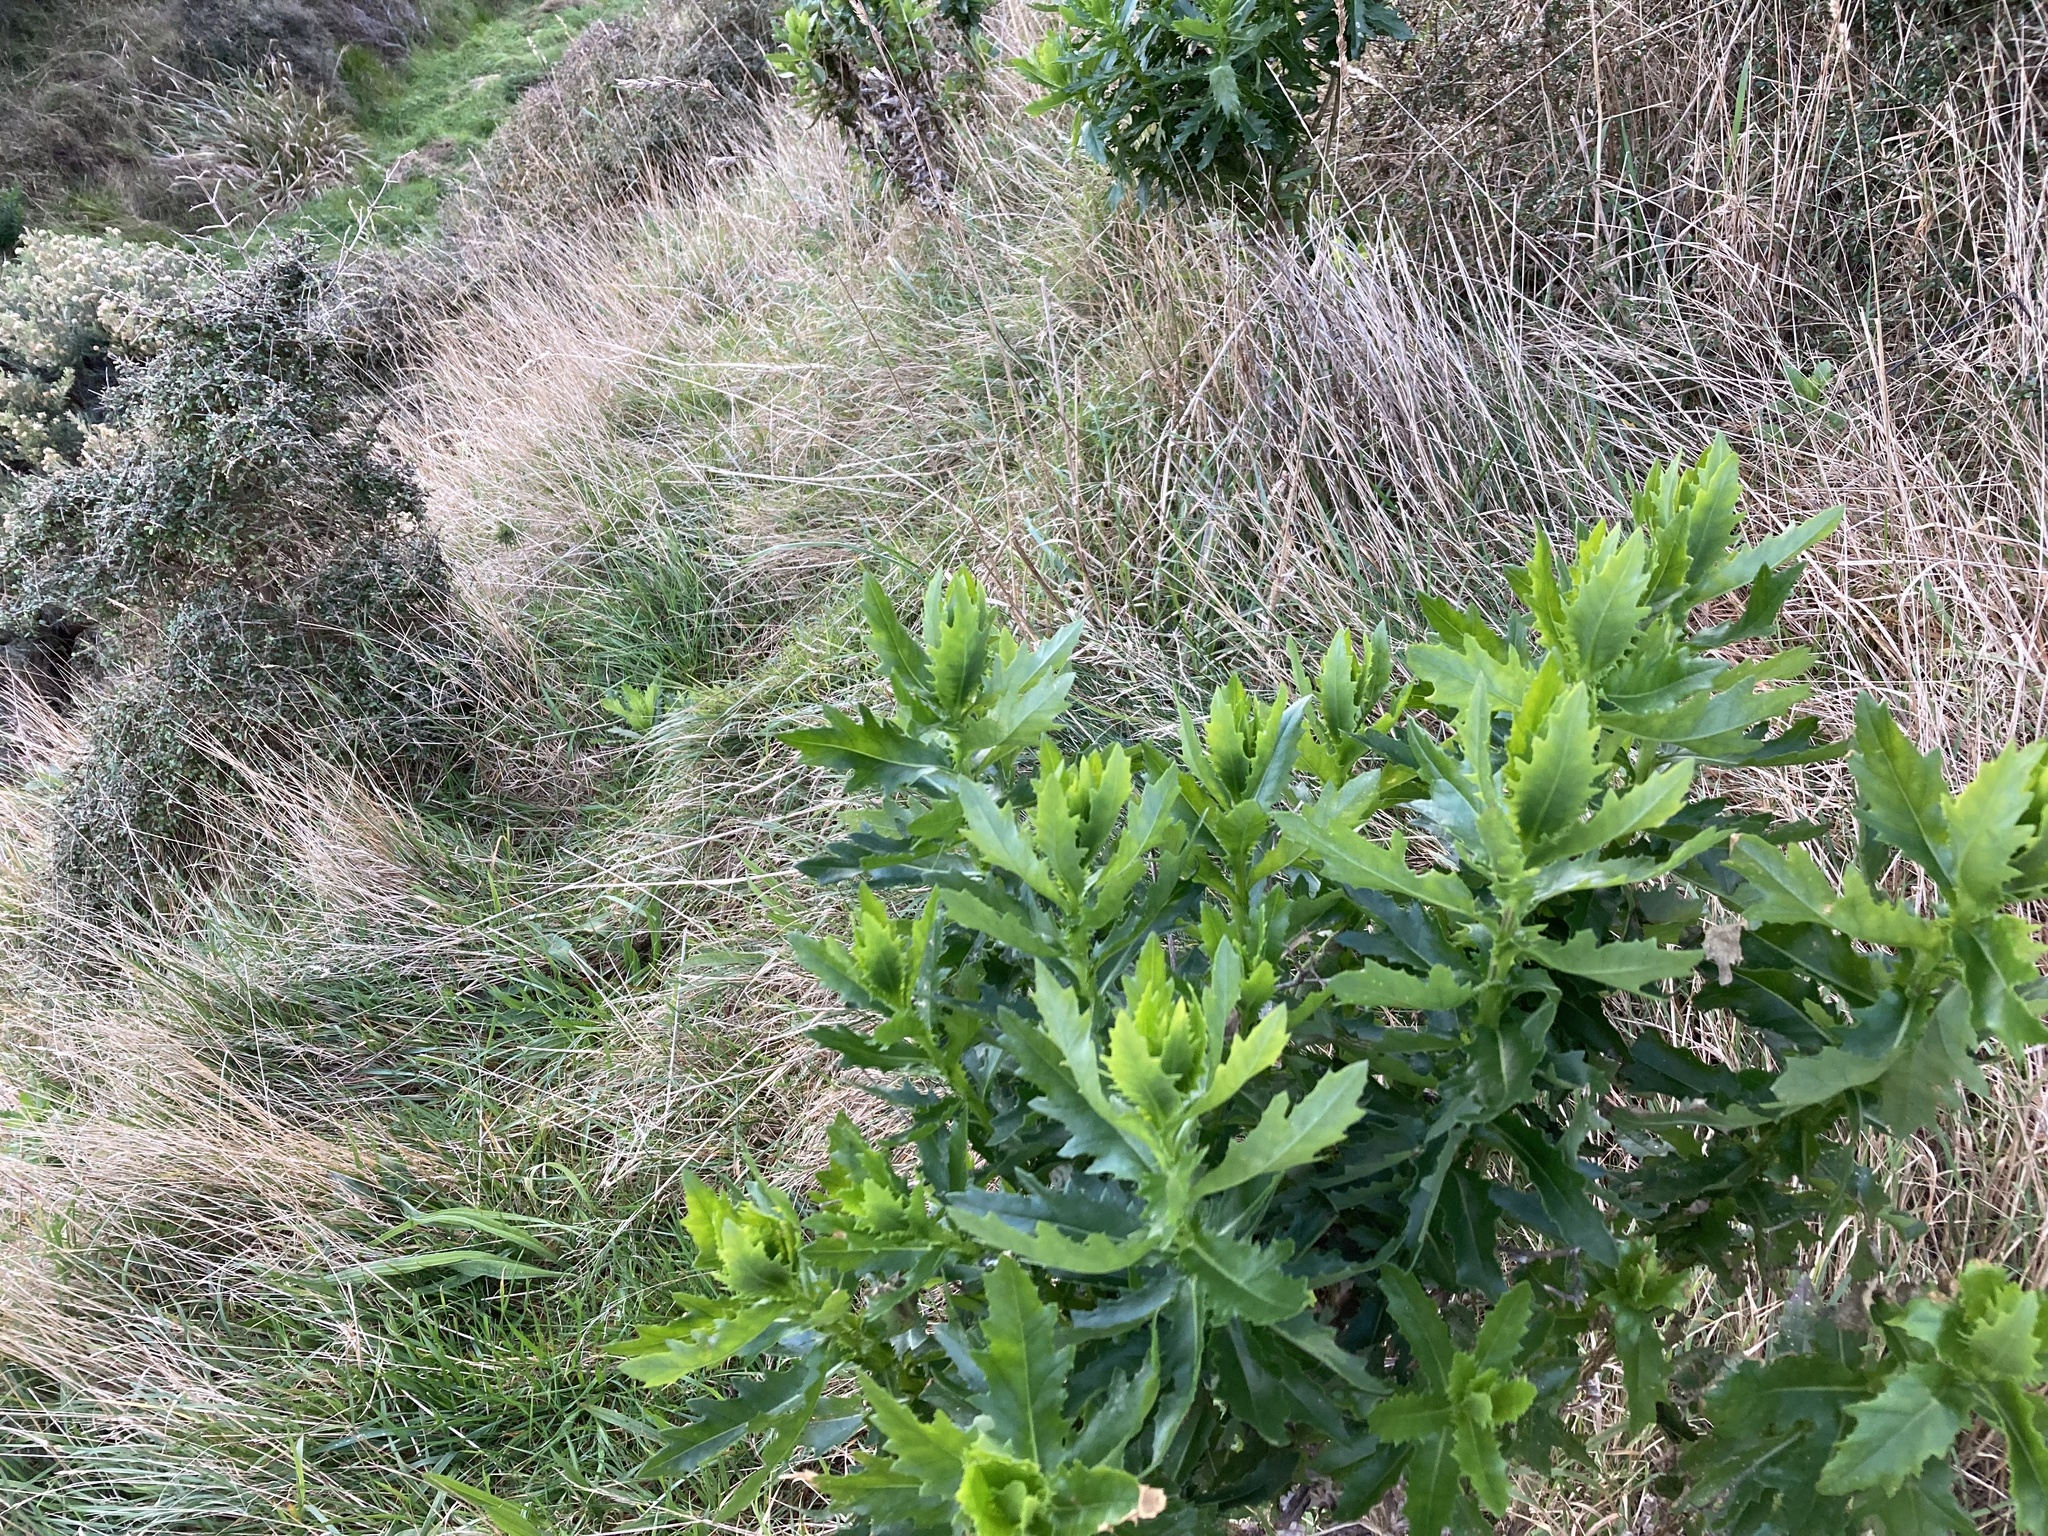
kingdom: Plantae
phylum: Tracheophyta
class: Magnoliopsida
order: Asterales
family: Asteraceae
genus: Senecio
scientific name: Senecio glastifolius
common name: Woad-leaved ragwort
